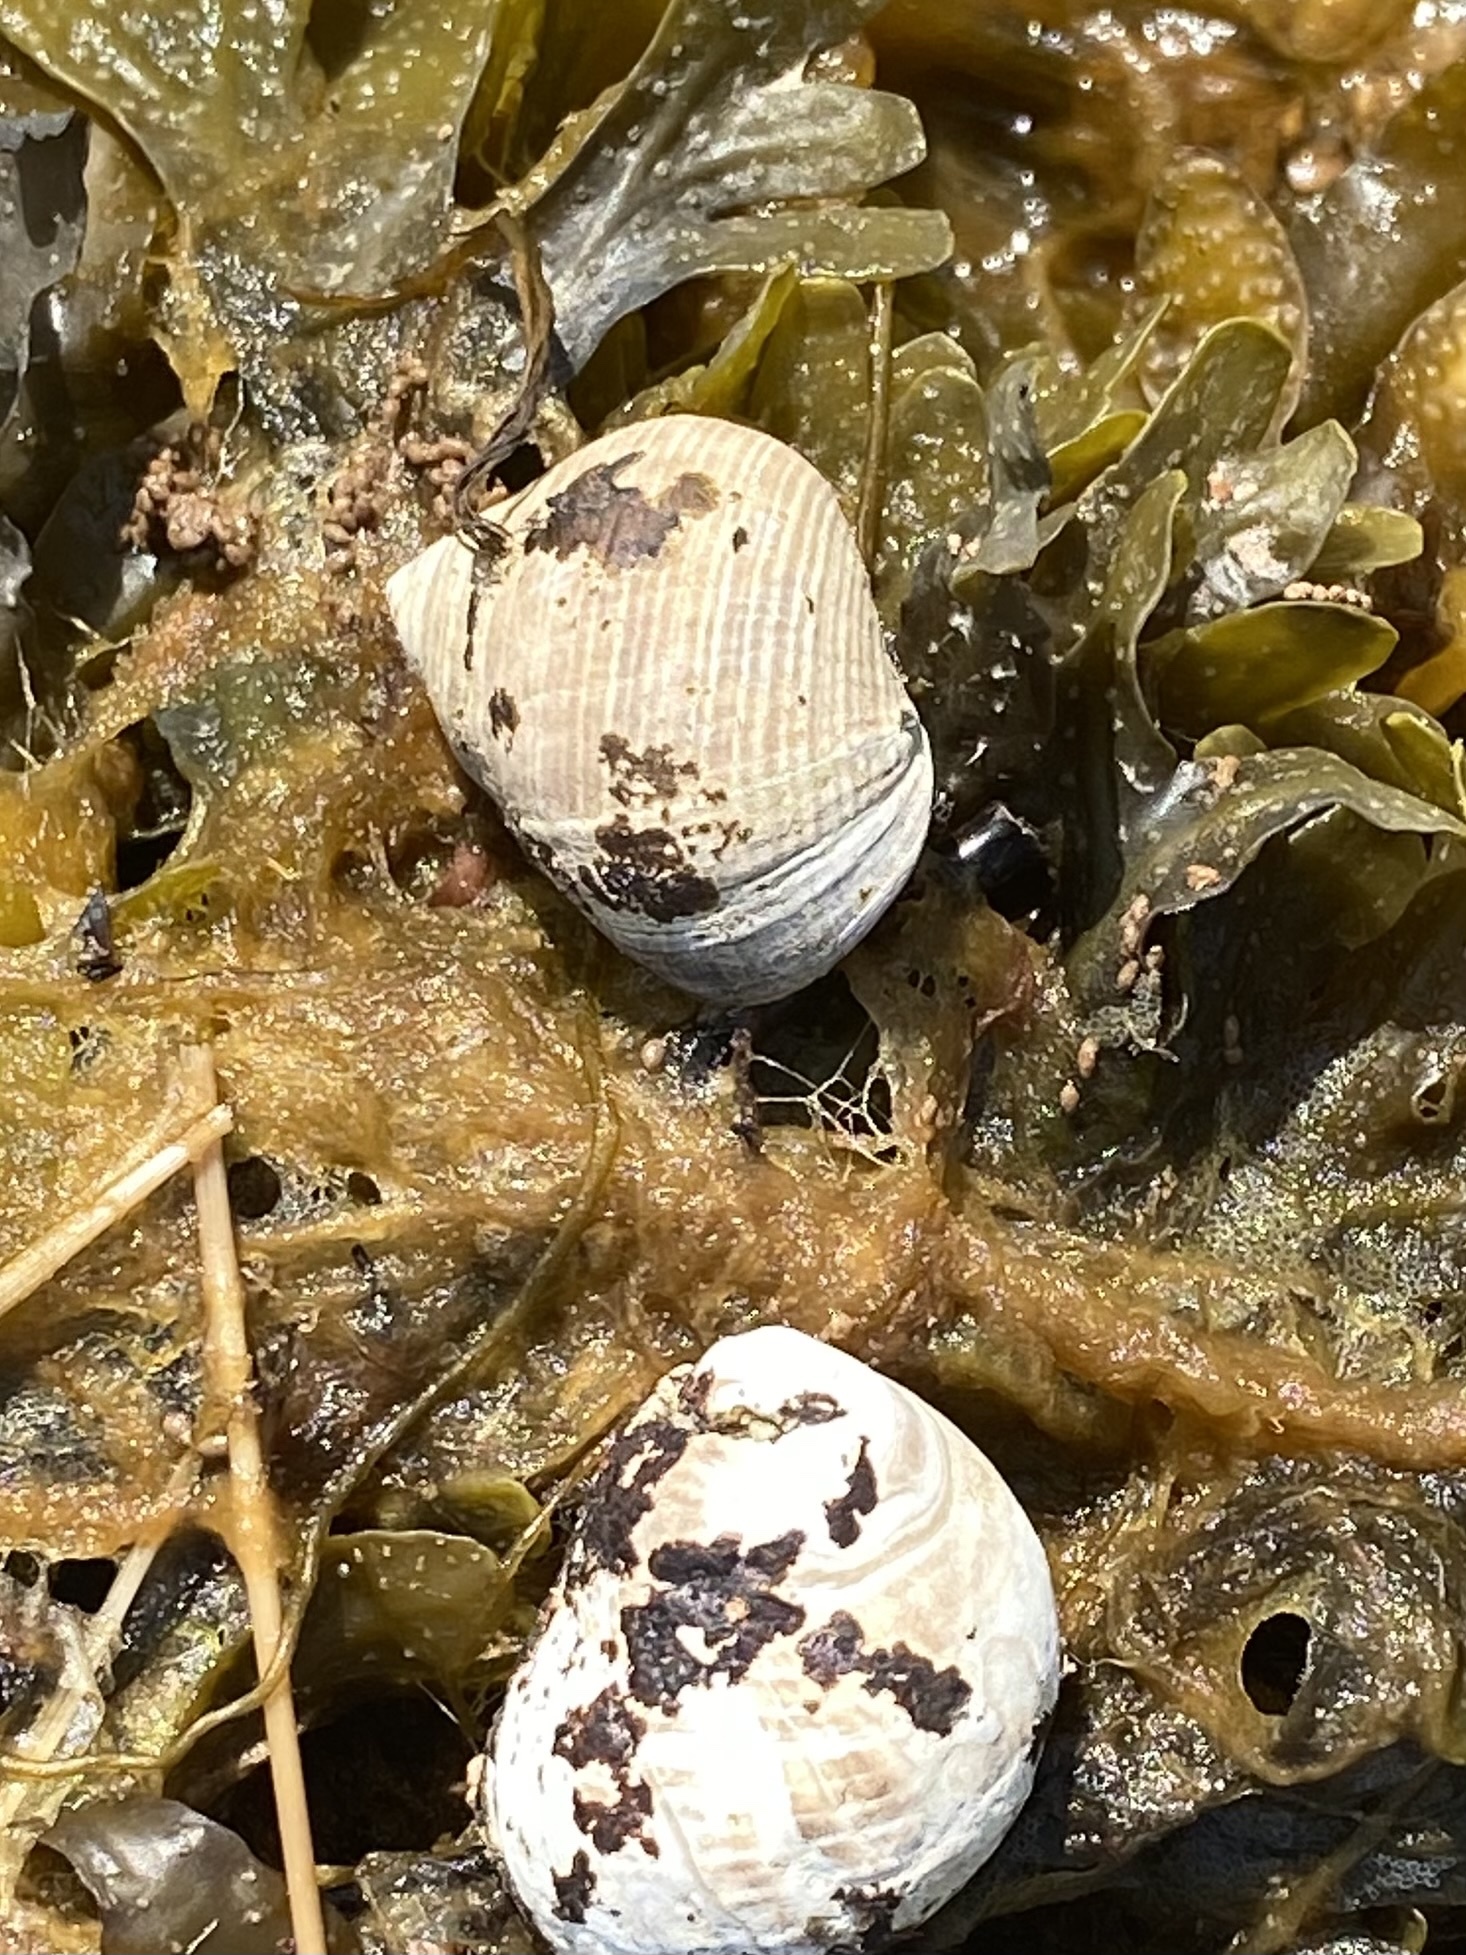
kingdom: Animalia
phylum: Mollusca
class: Gastropoda
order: Littorinimorpha
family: Littorinidae
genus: Littorina
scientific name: Littorina littorea
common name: Common periwinkle
